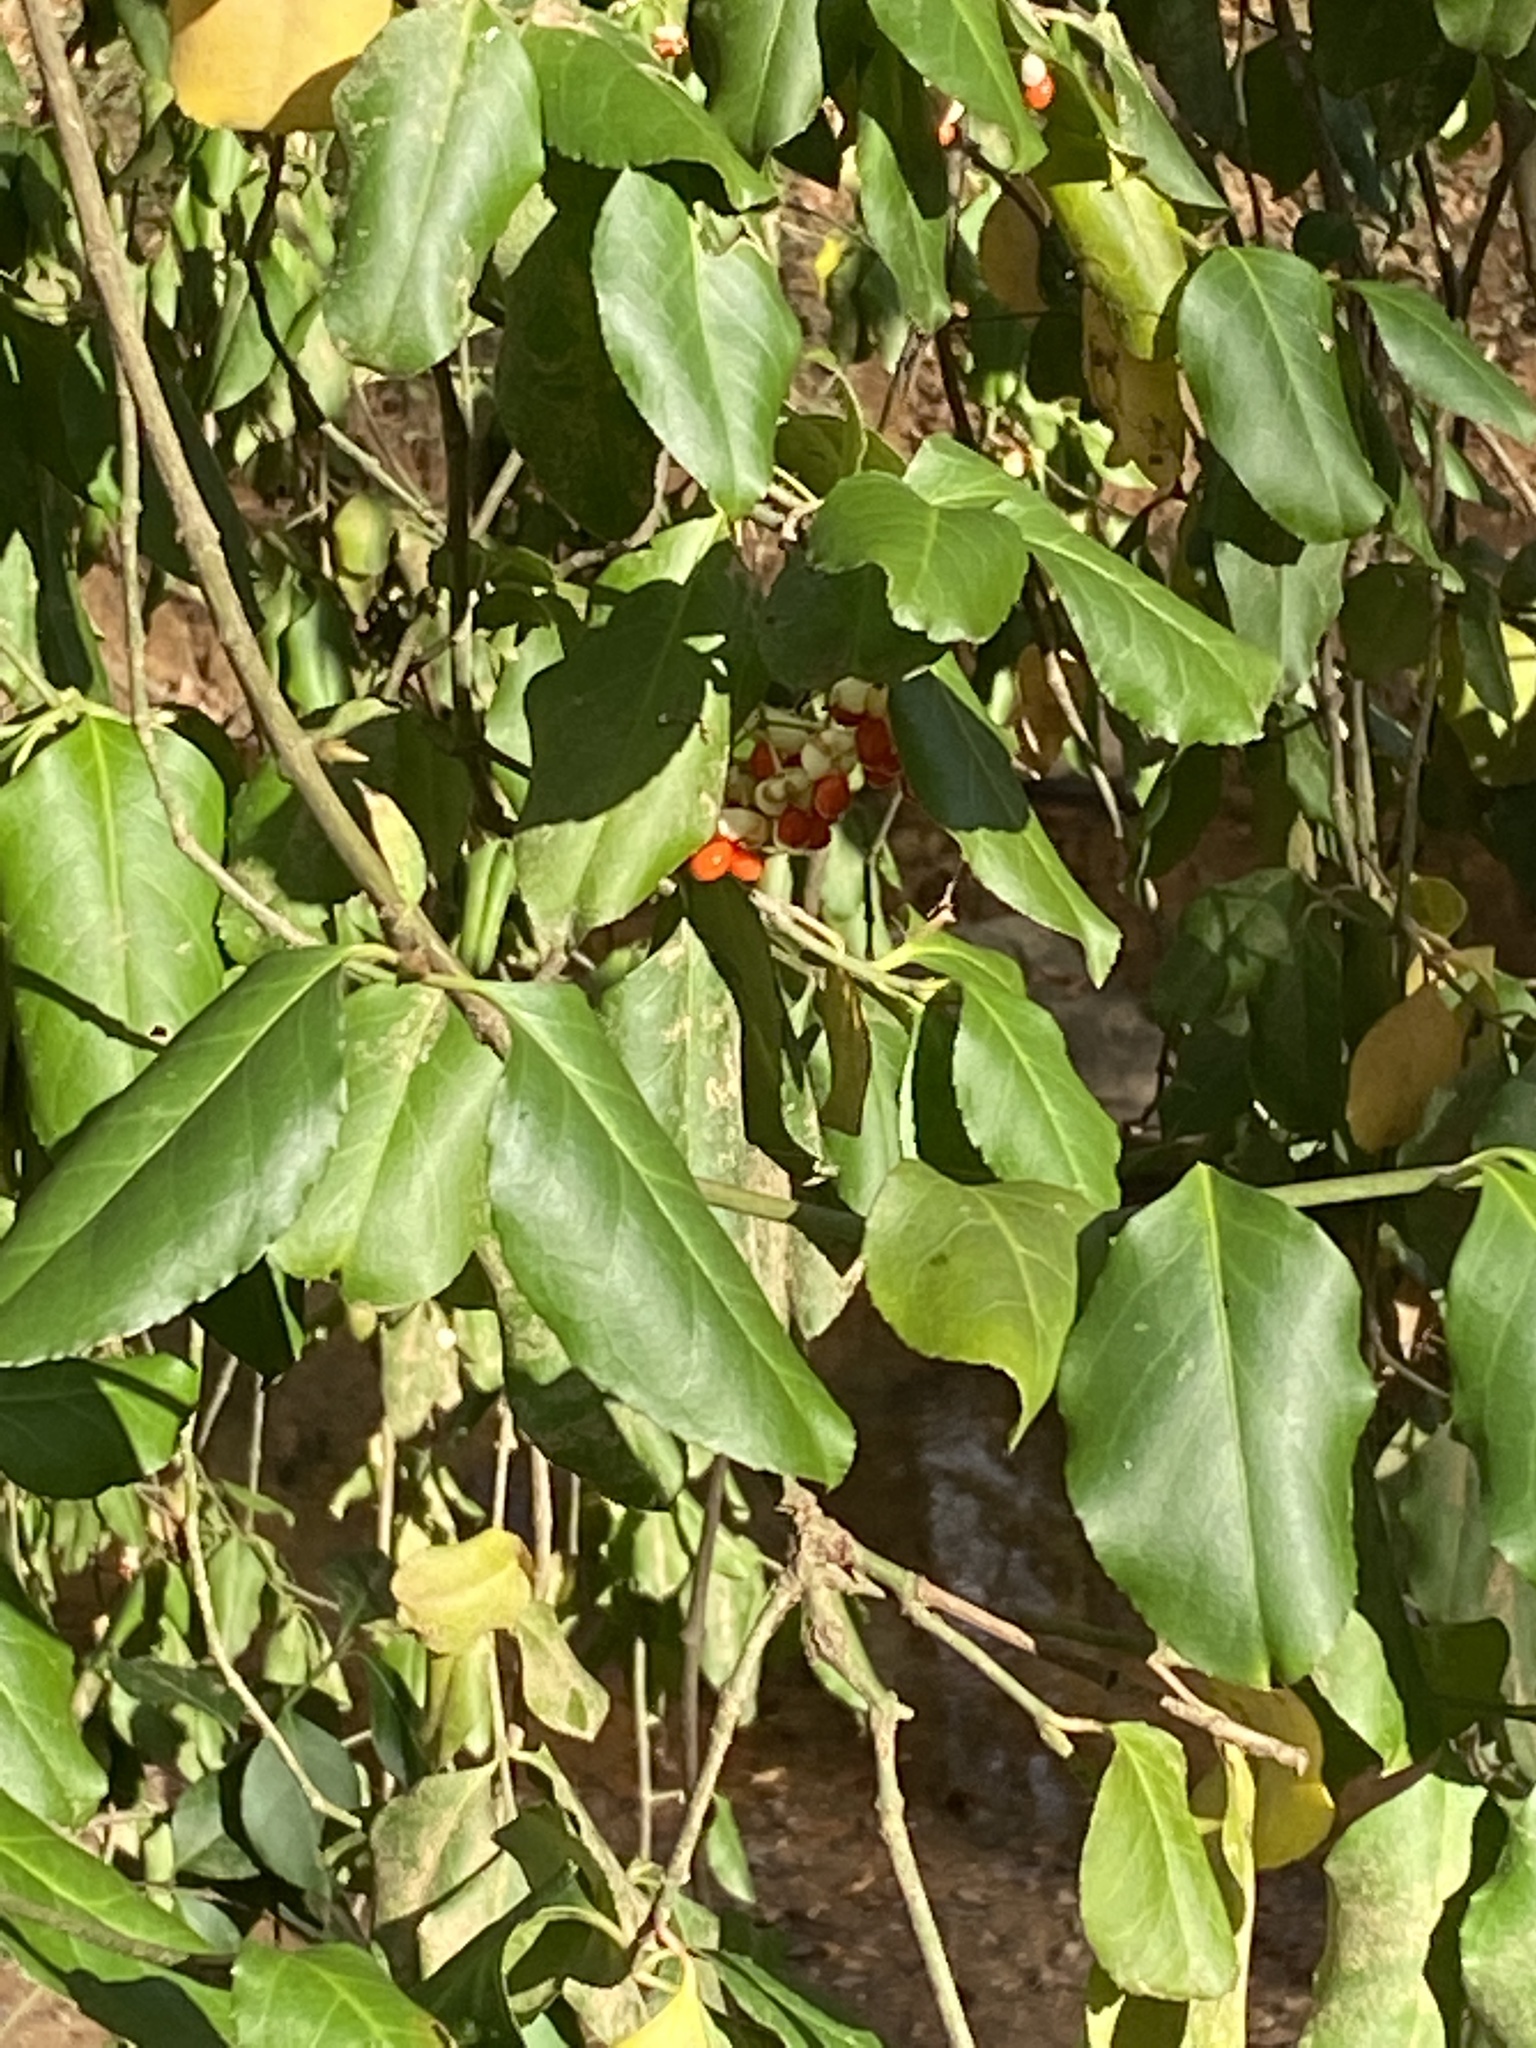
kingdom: Plantae
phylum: Tracheophyta
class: Magnoliopsida
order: Celastrales
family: Celastraceae
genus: Euonymus
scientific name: Euonymus fortunei
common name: Climbing euonymus
